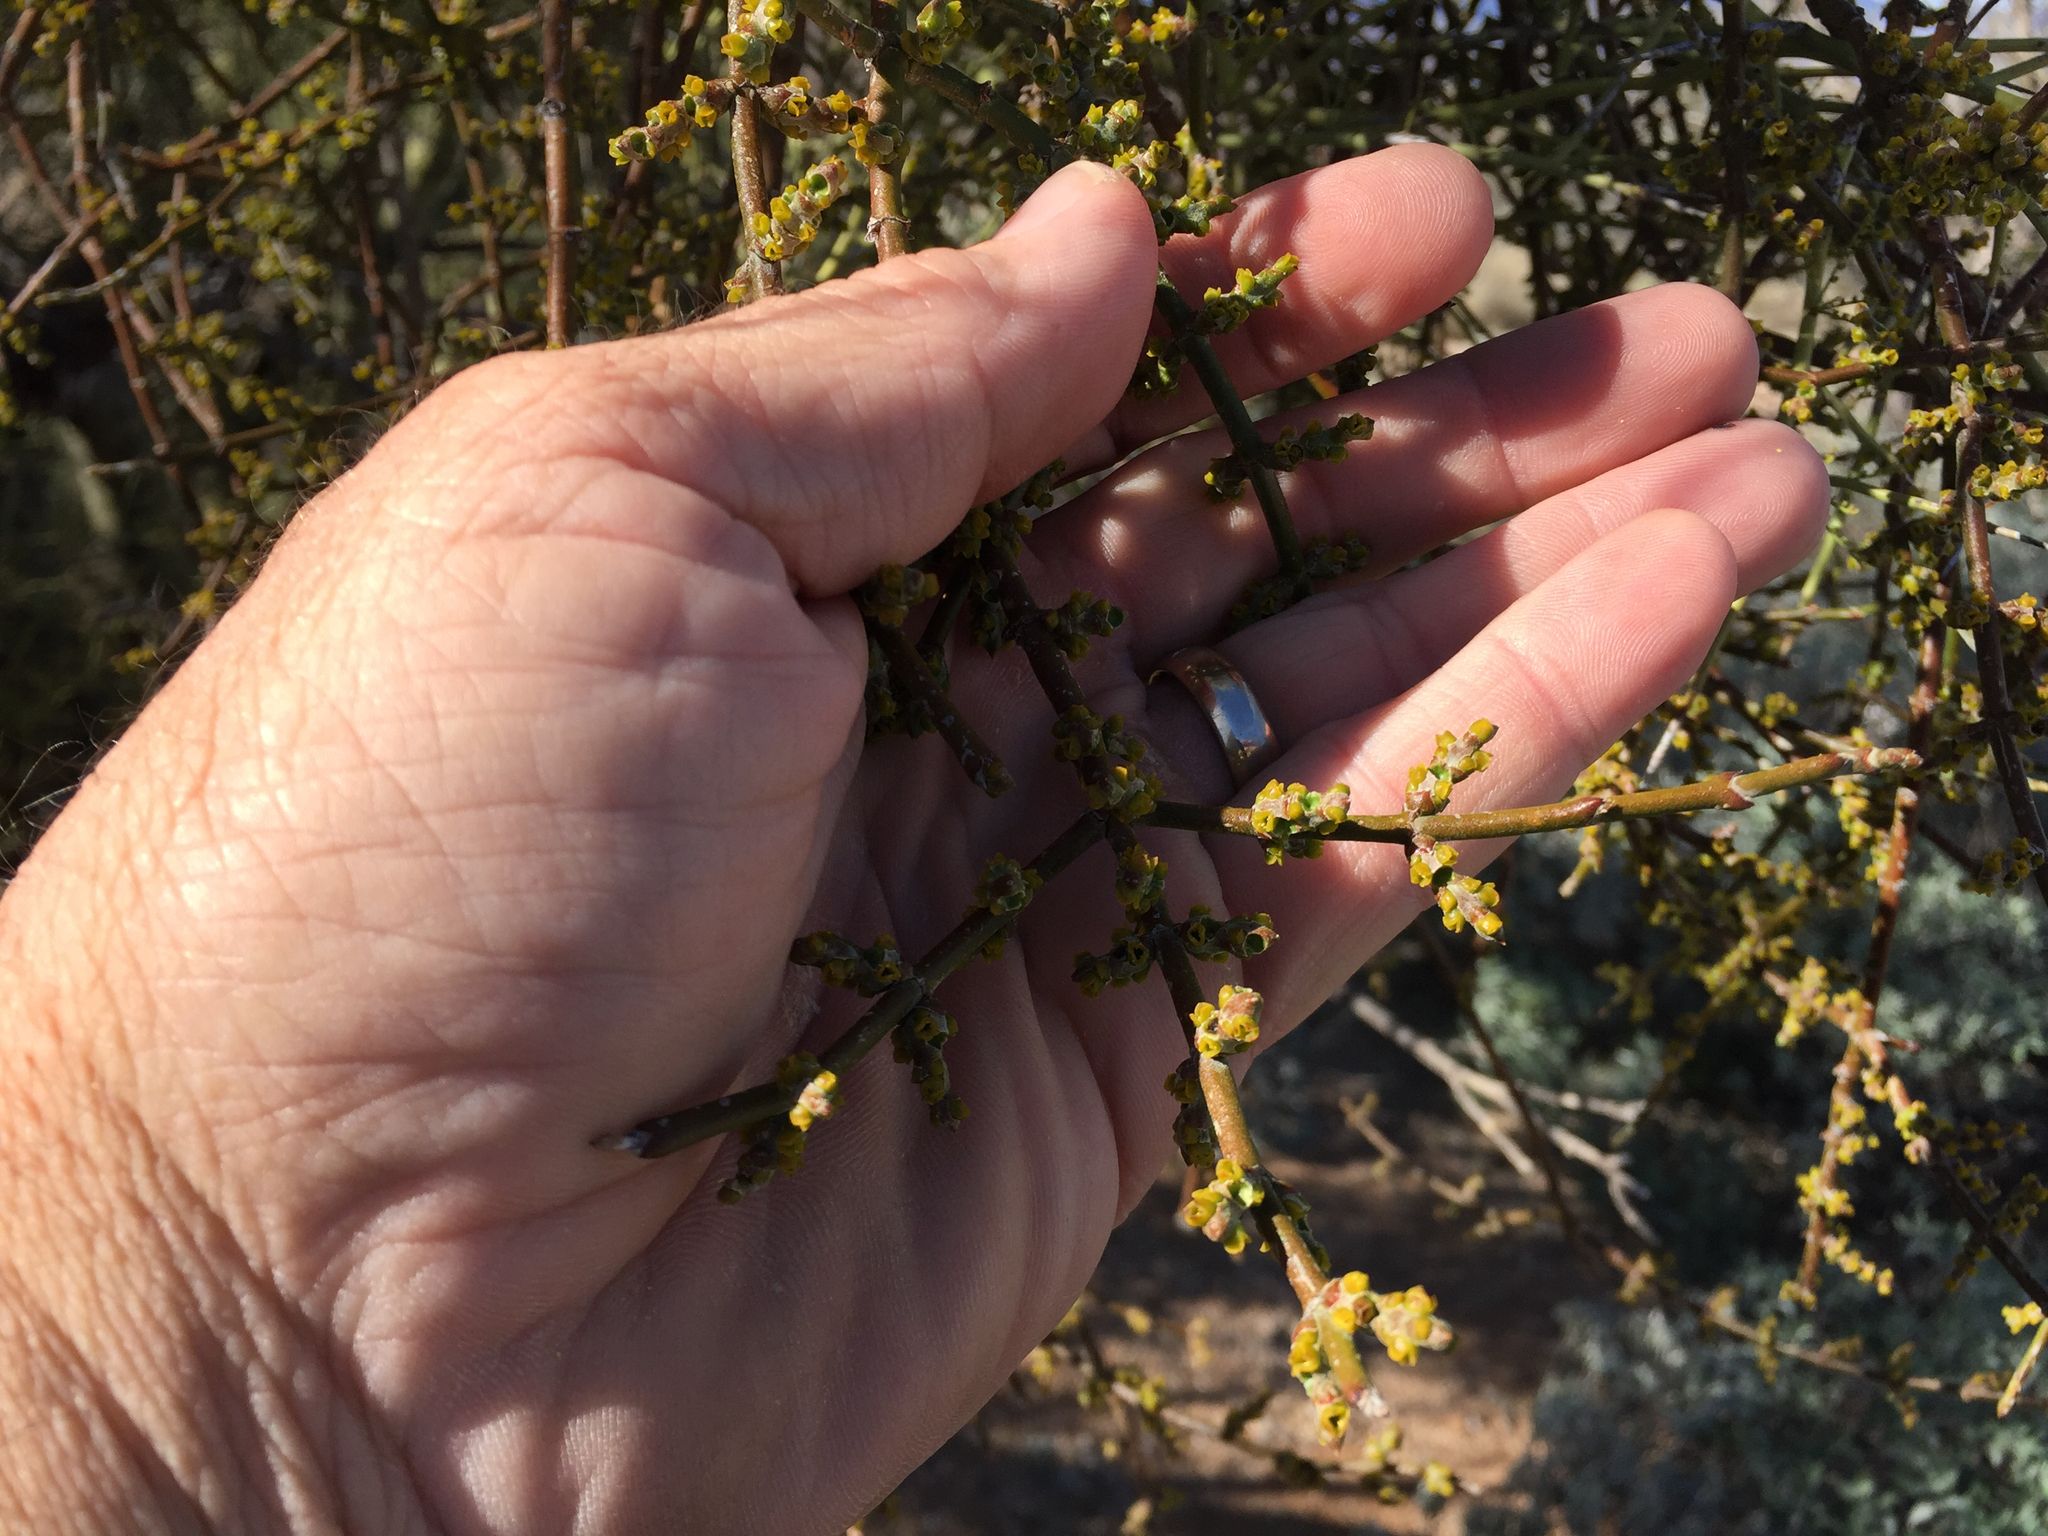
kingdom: Plantae
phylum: Tracheophyta
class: Magnoliopsida
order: Santalales
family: Viscaceae
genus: Phoradendron
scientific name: Phoradendron californicum
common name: Acacia mistletoe
